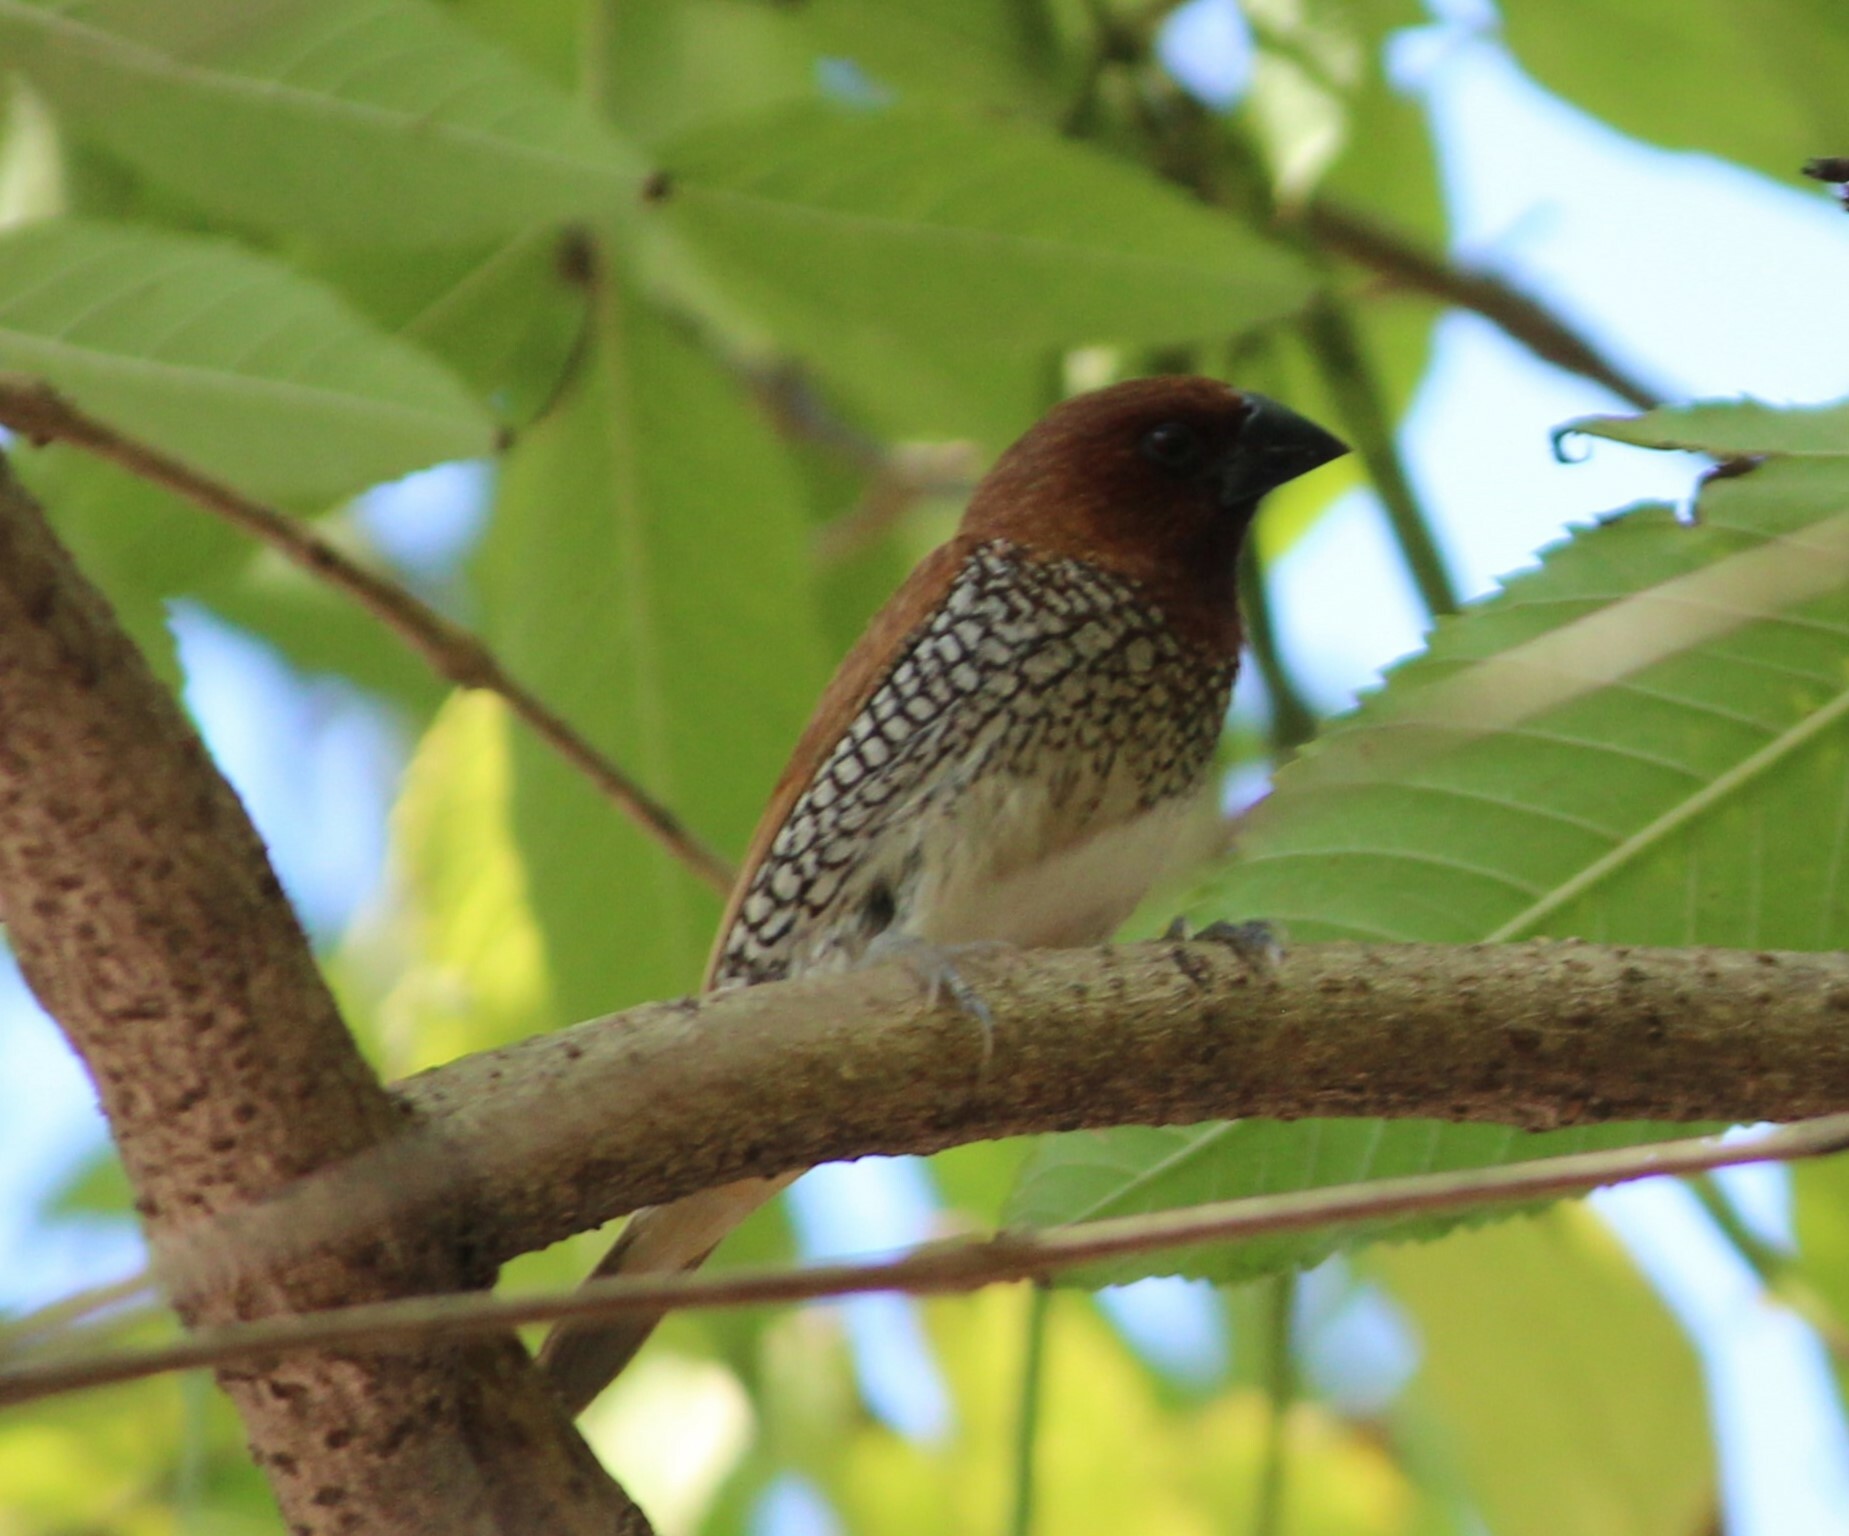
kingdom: Animalia
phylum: Chordata
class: Aves
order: Passeriformes
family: Estrildidae
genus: Lonchura
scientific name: Lonchura punctulata
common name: Scaly-breasted munia
